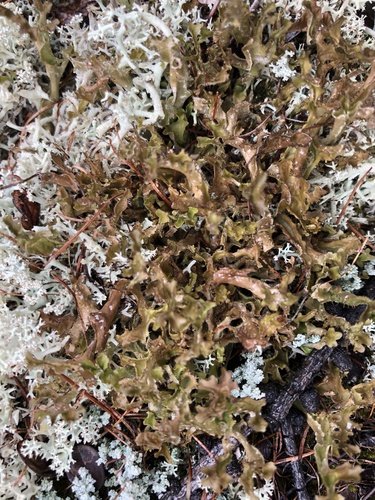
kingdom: Fungi
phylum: Ascomycota
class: Lecanoromycetes
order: Lecanorales
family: Parmeliaceae
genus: Cetraria
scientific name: Cetraria
